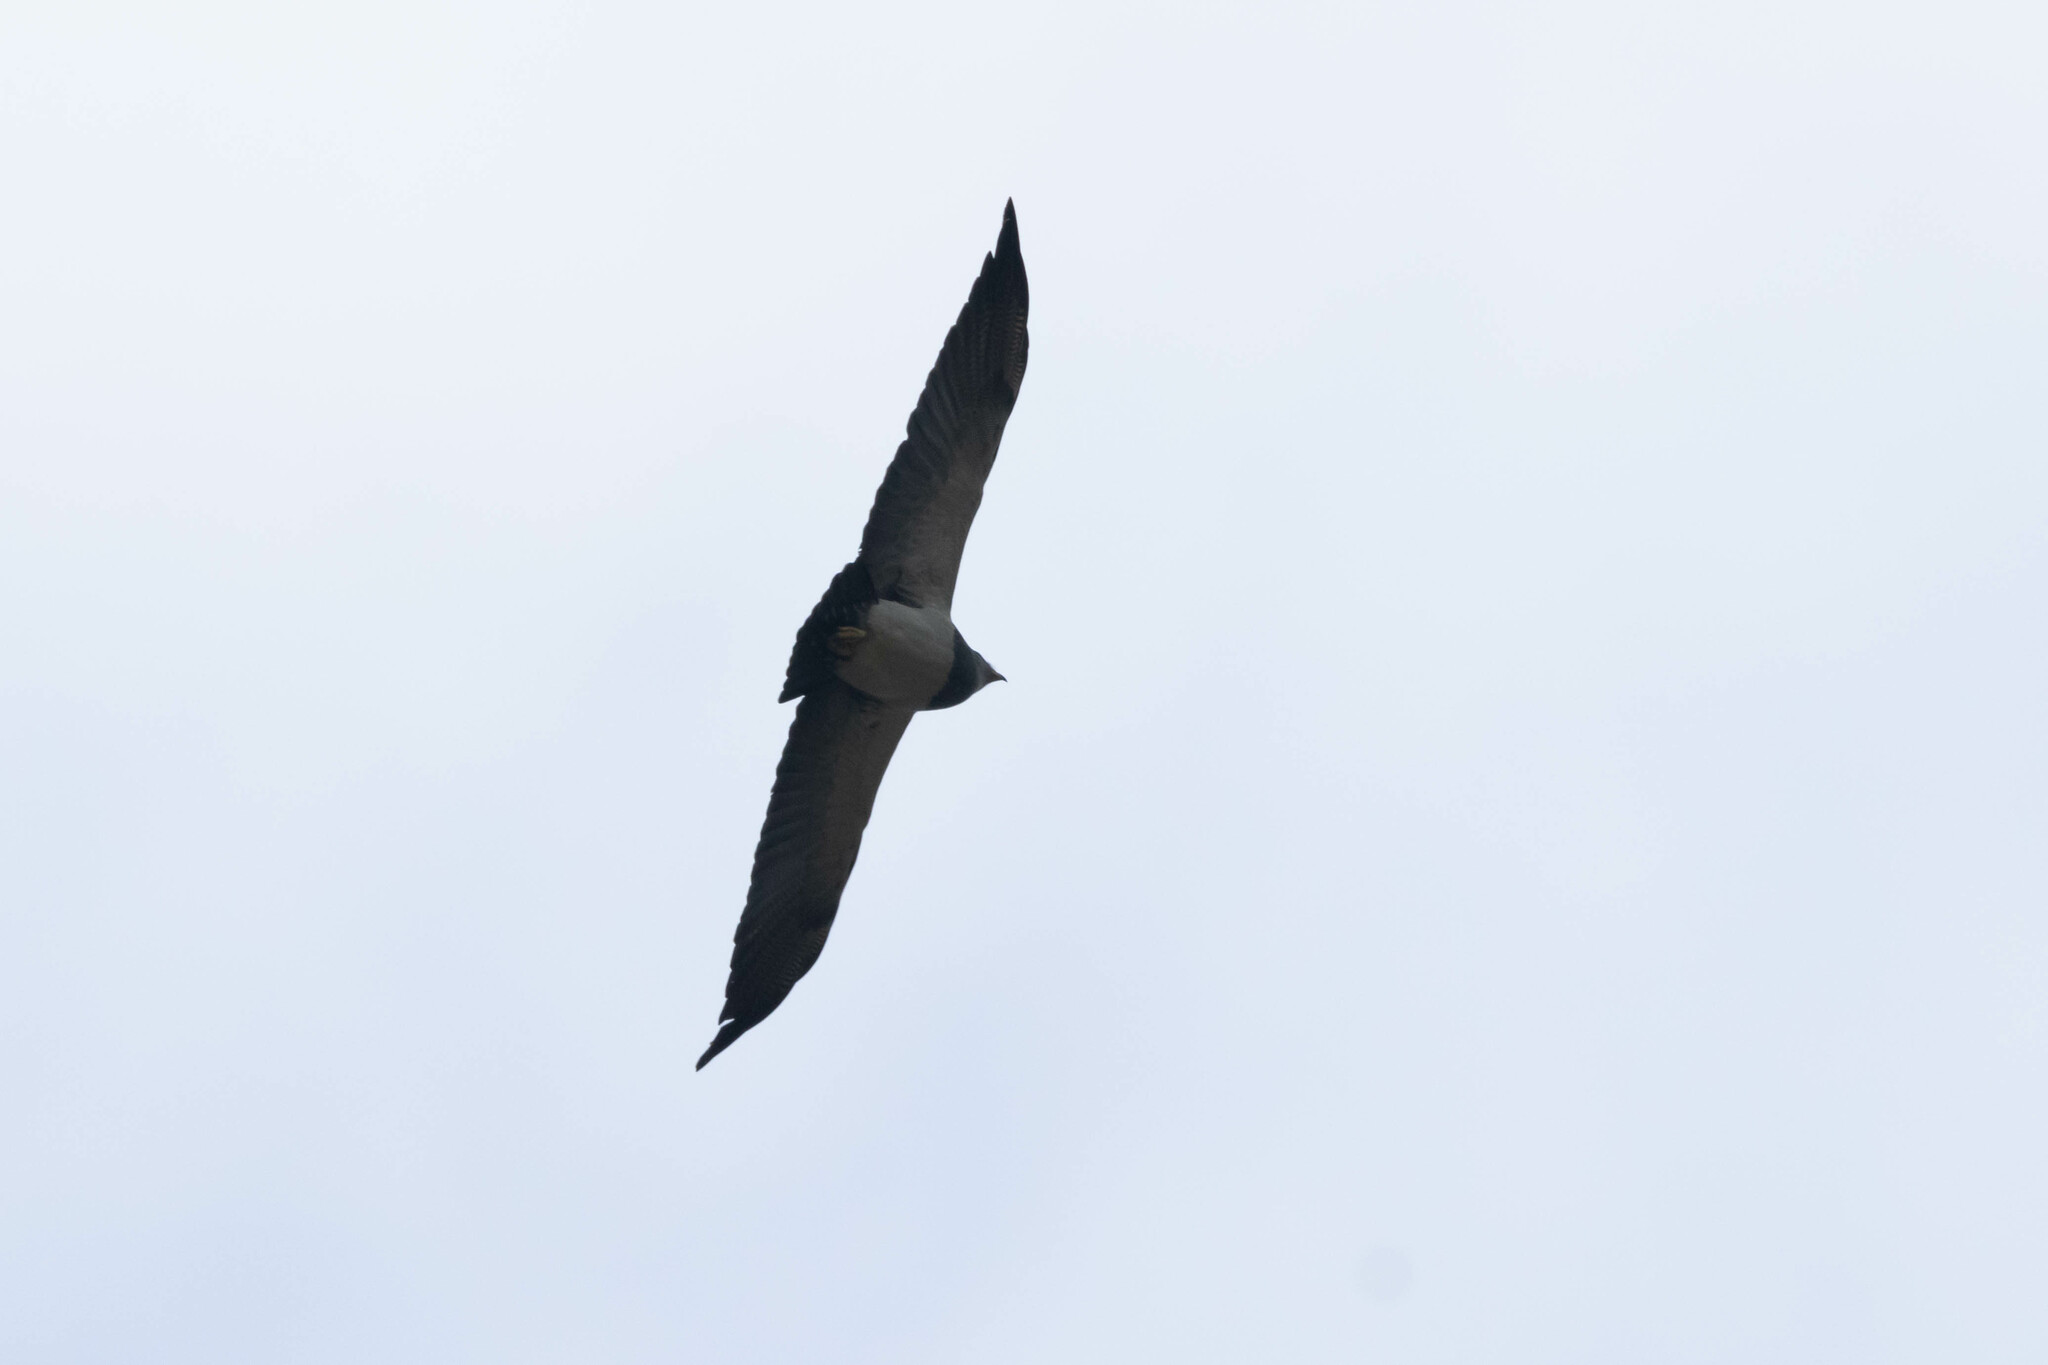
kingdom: Animalia
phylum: Chordata
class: Aves
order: Accipitriformes
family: Accipitridae
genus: Geranoaetus
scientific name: Geranoaetus melanoleucus
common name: Black-chested buzzard-eagle
